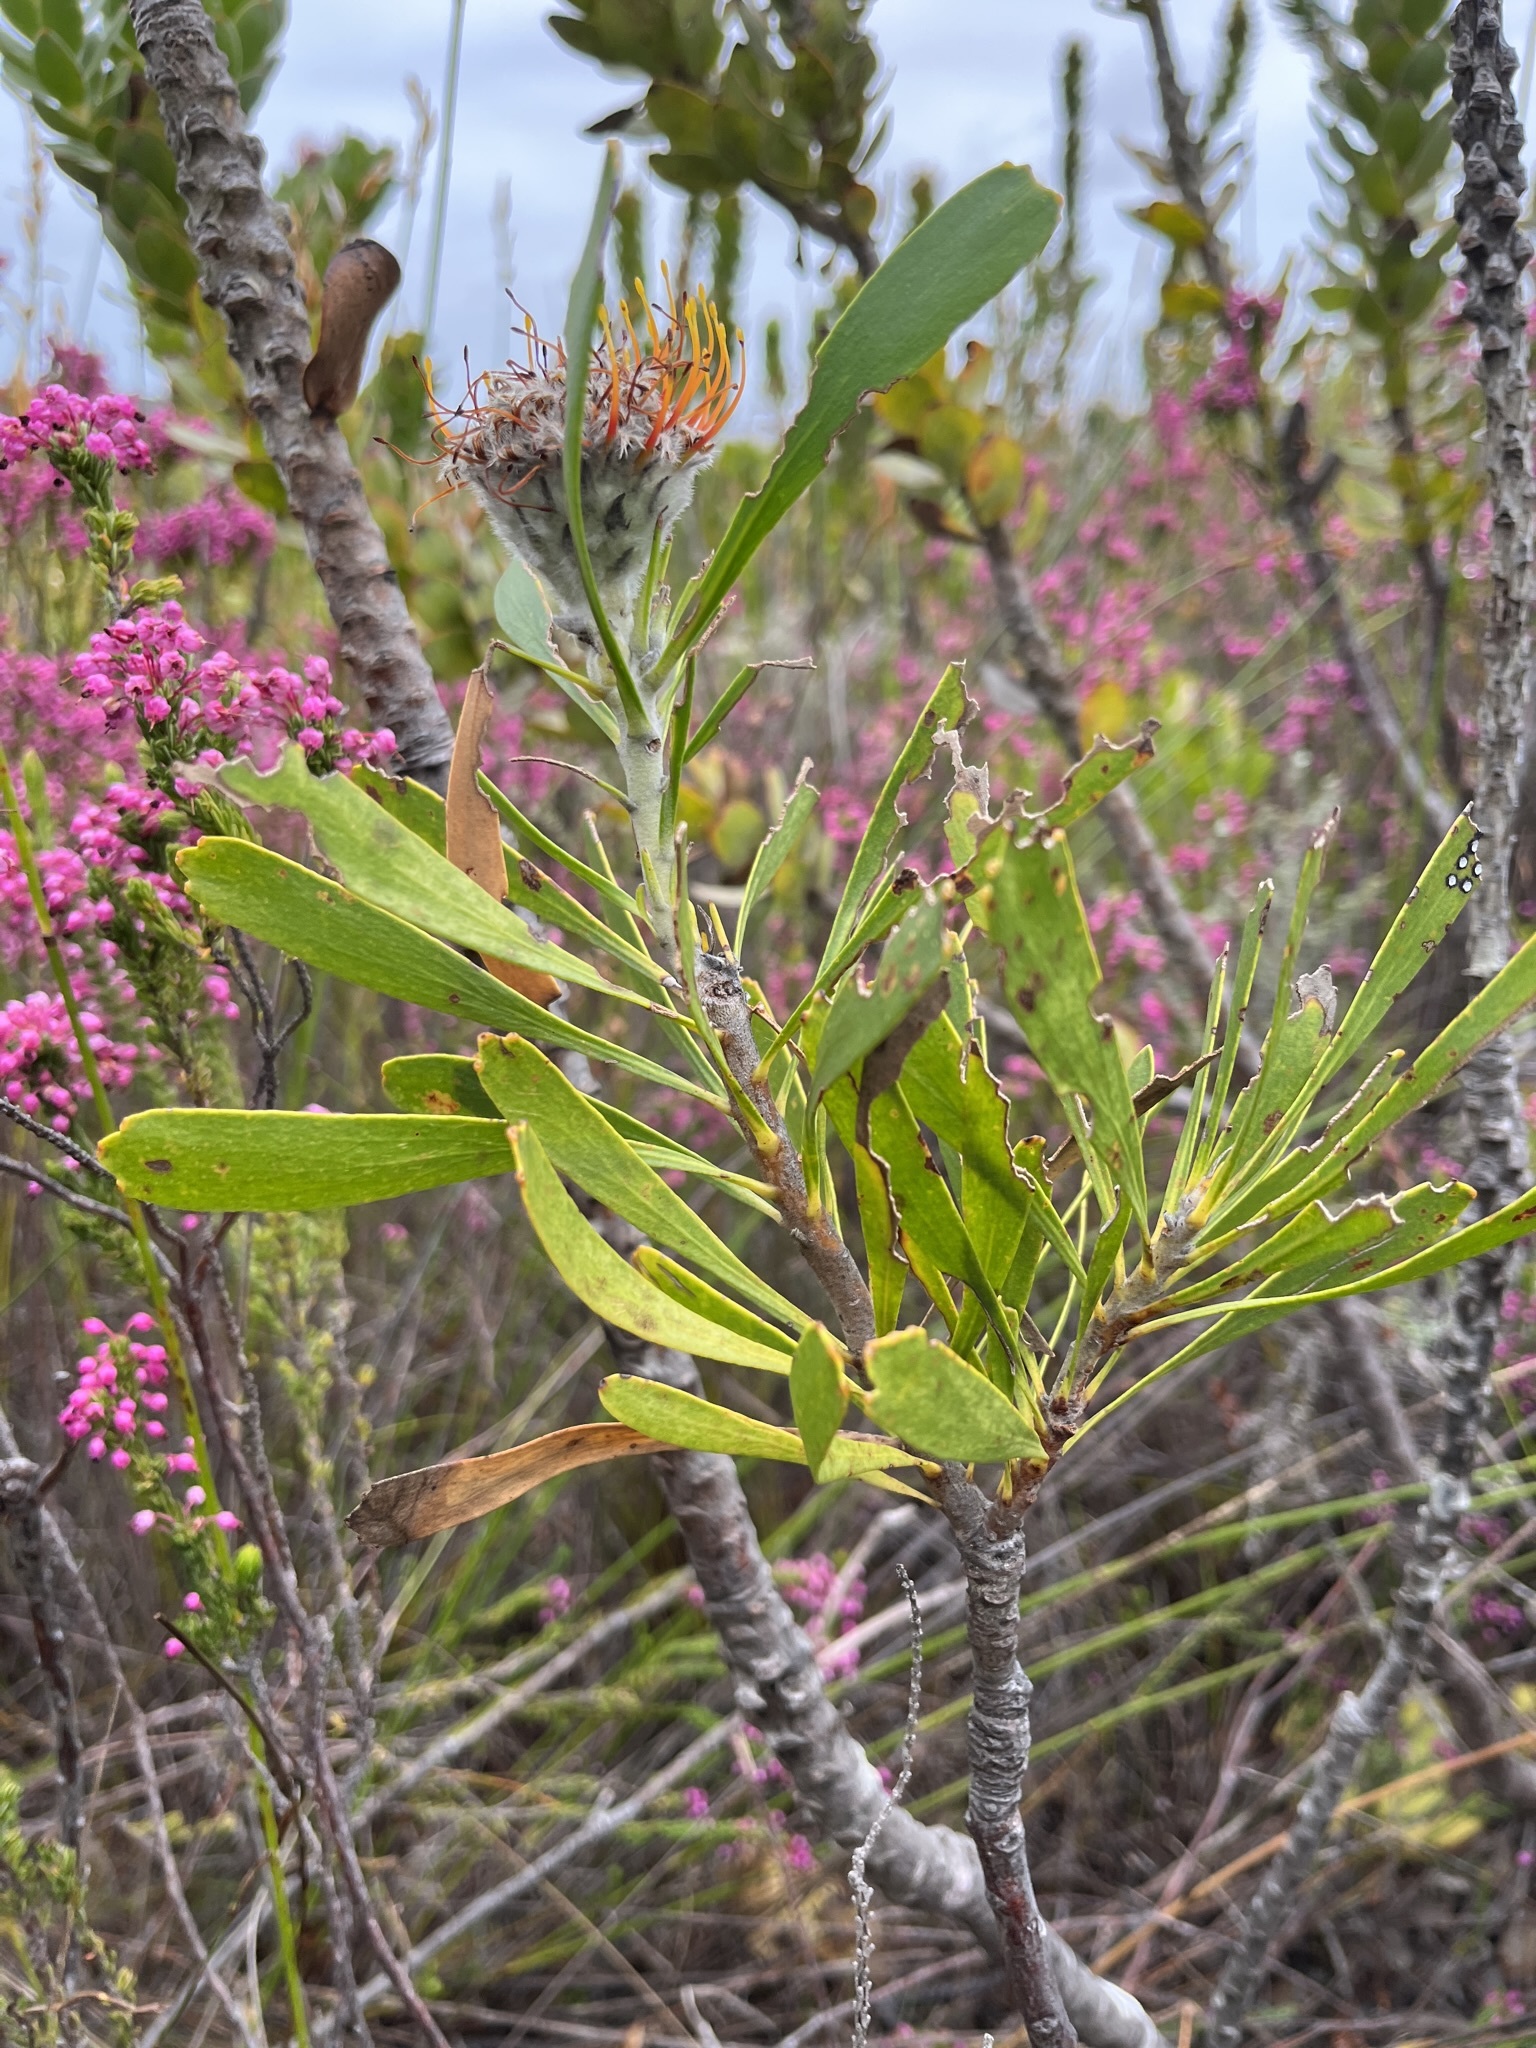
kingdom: Plantae
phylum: Tracheophyta
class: Magnoliopsida
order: Proteales
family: Proteaceae
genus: Leucospermum
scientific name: Leucospermum truncatum
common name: Limestone pincushion
